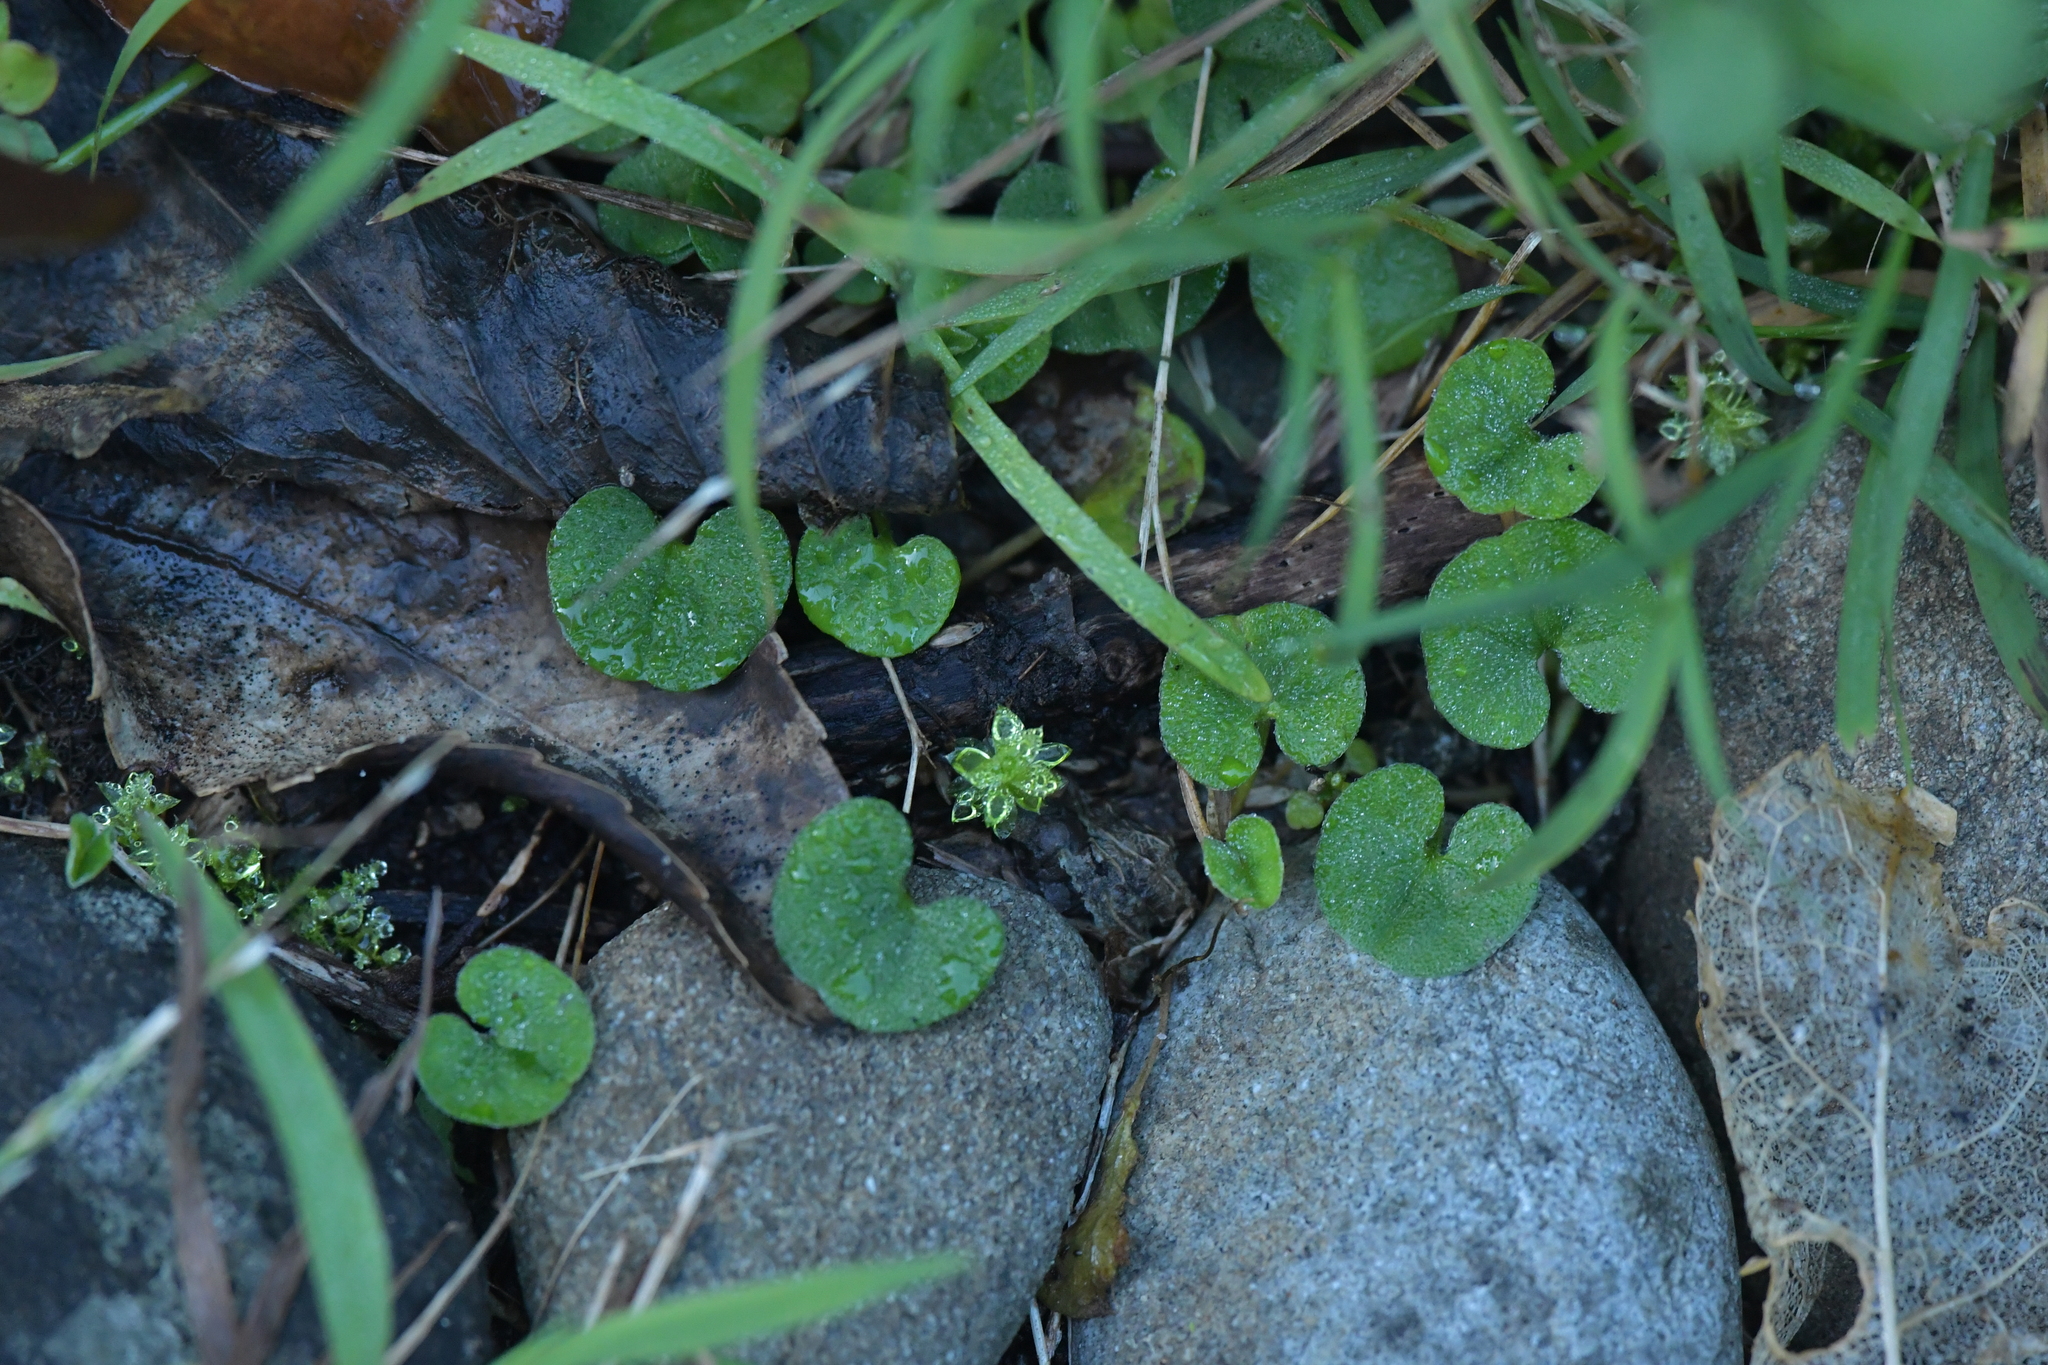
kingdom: Plantae
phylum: Tracheophyta
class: Magnoliopsida
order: Solanales
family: Convolvulaceae
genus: Dichondra
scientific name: Dichondra repens
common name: Kidneyweed
